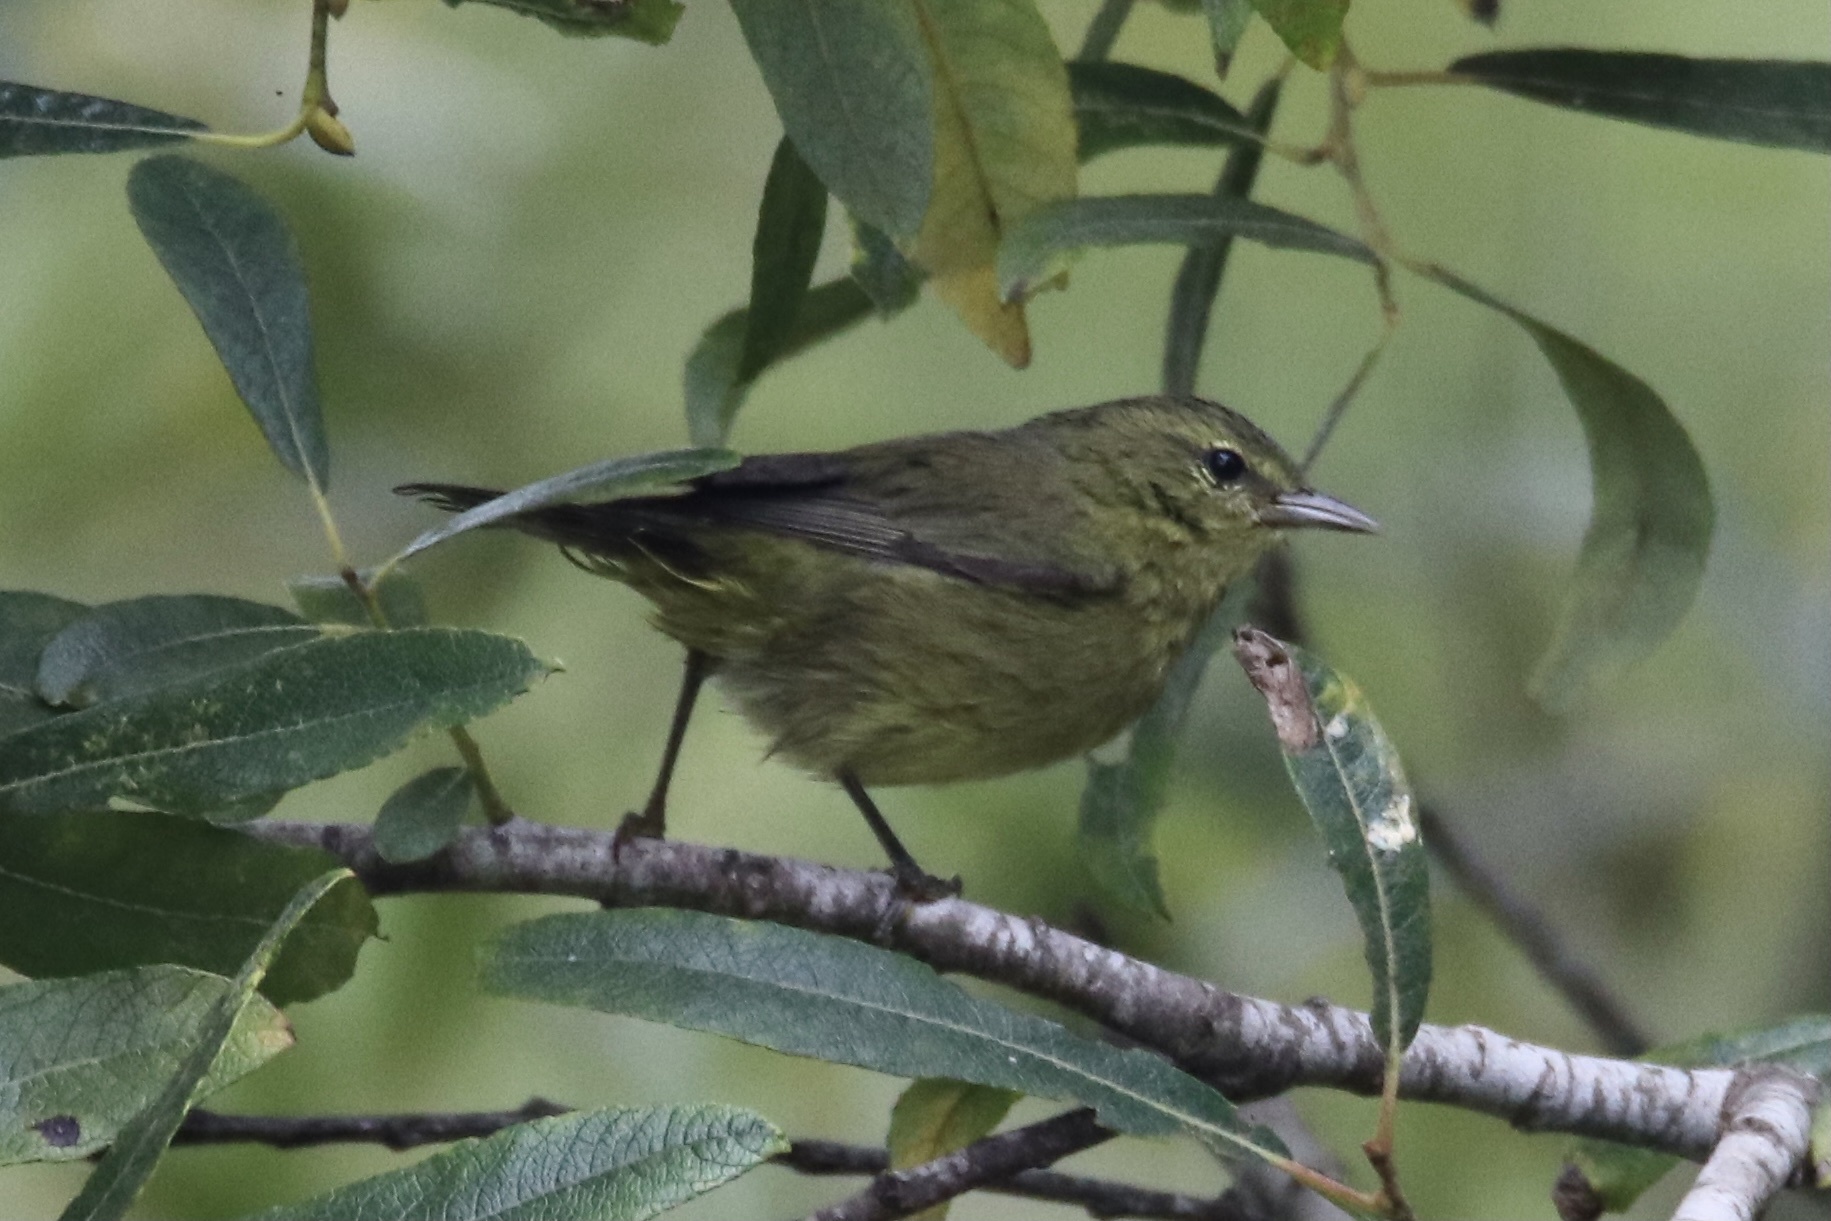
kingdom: Animalia
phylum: Chordata
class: Aves
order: Passeriformes
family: Parulidae
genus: Leiothlypis
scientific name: Leiothlypis celata
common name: Orange-crowned warbler
